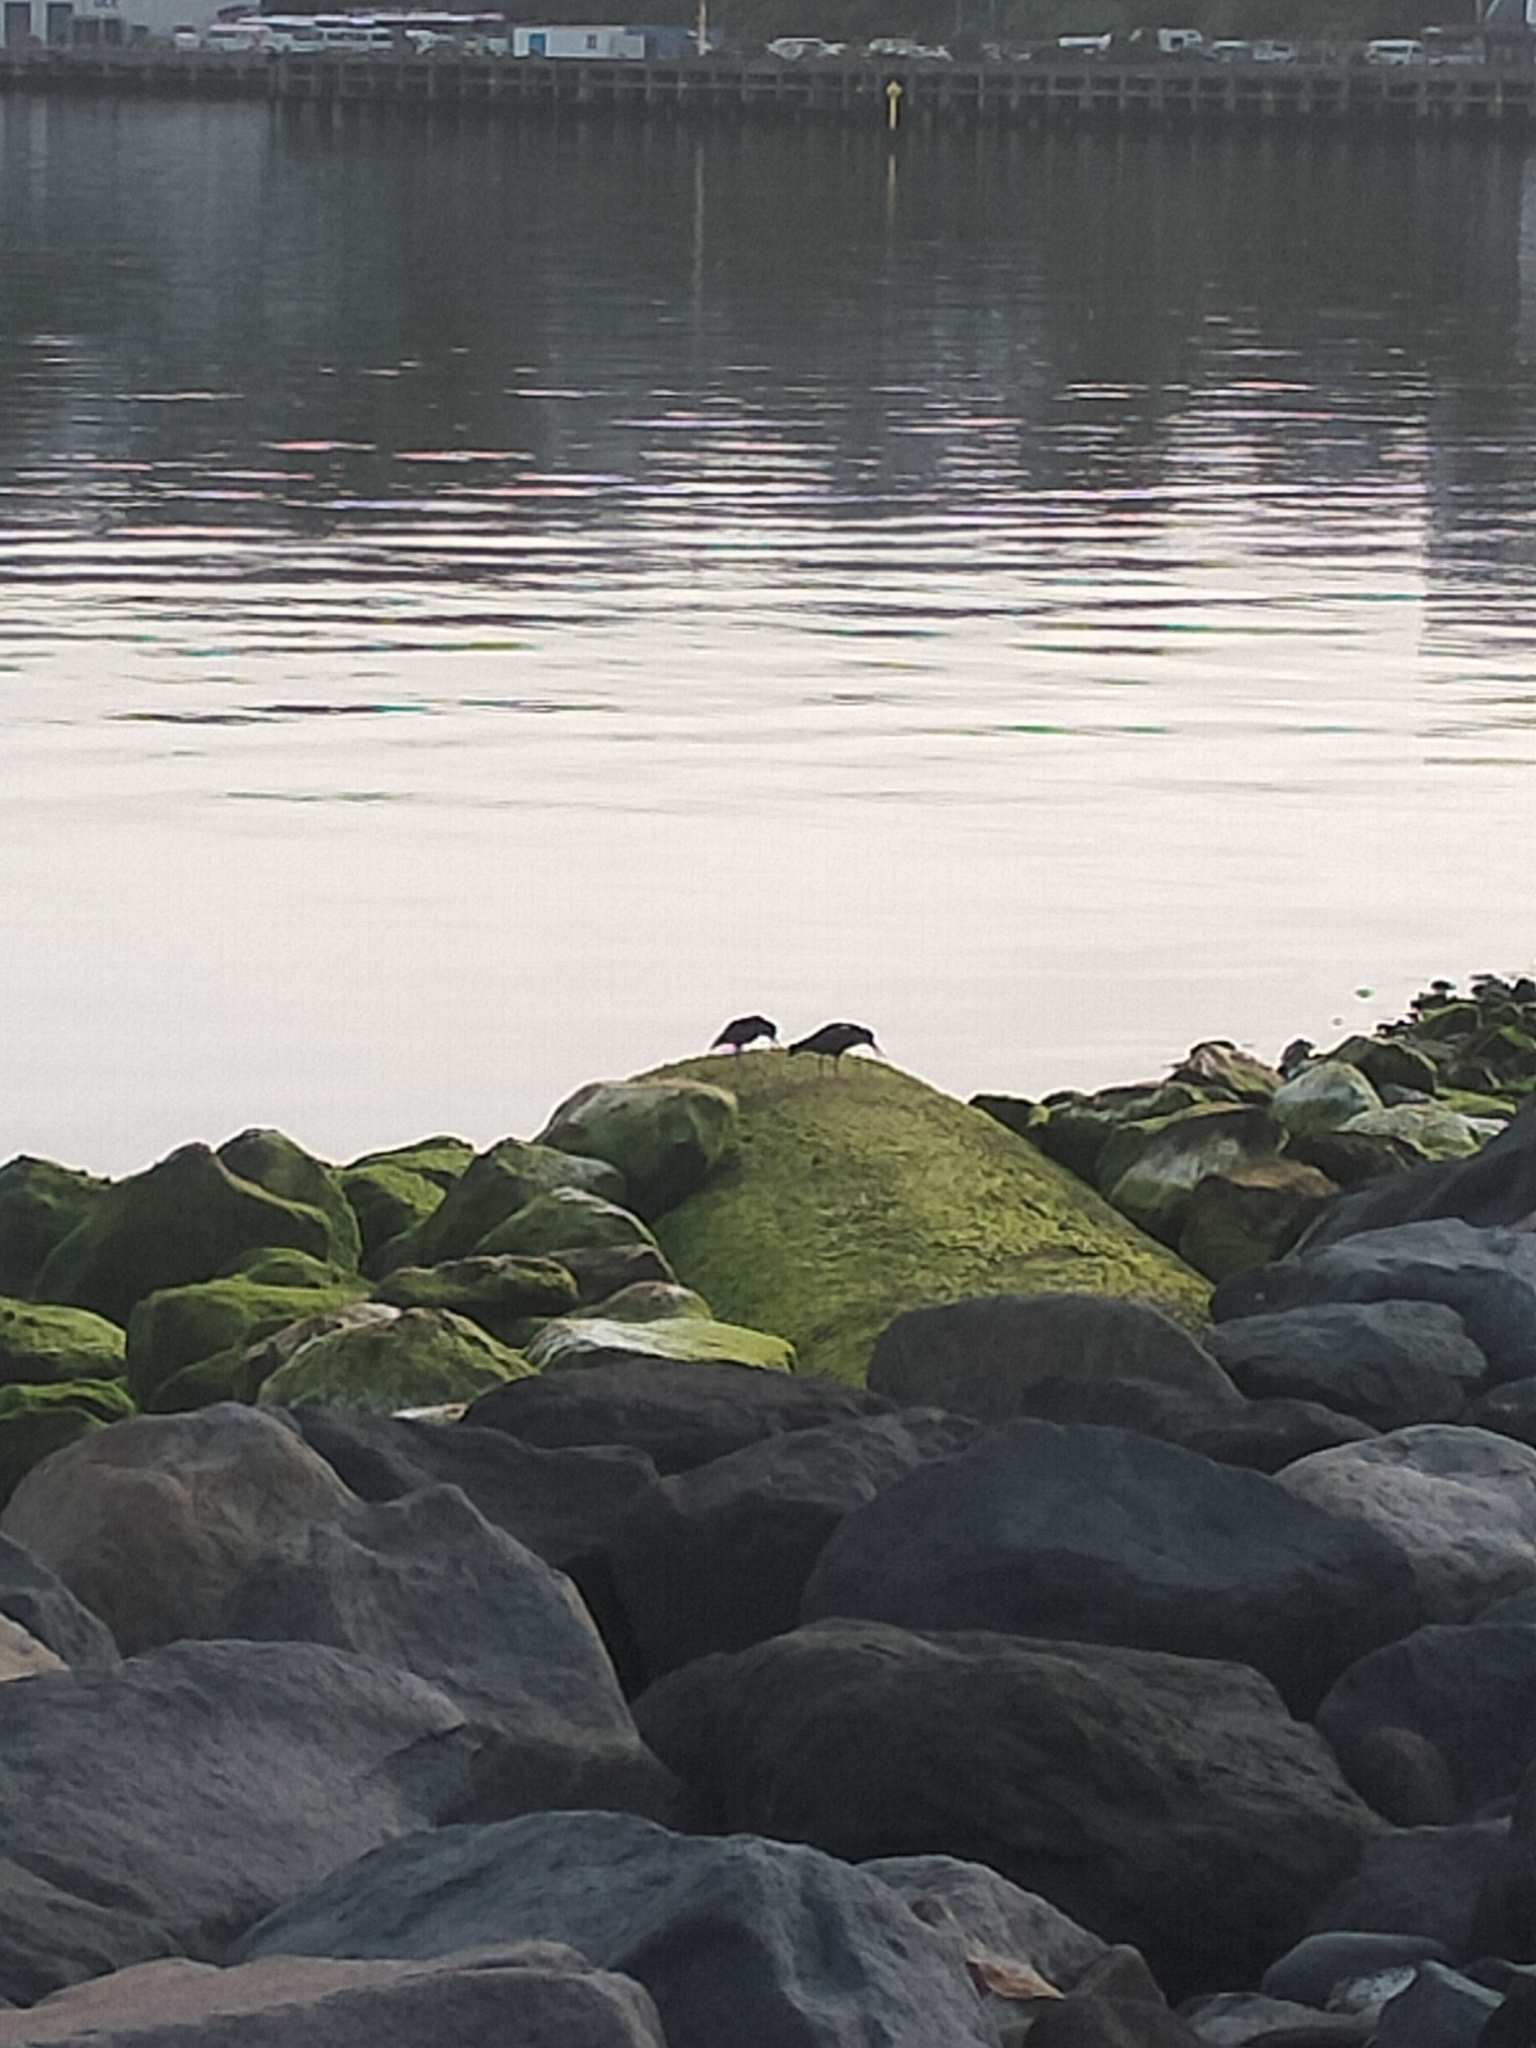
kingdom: Animalia
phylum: Chordata
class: Aves
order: Charadriiformes
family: Haematopodidae
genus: Haematopus
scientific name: Haematopus unicolor
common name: Variable oystercatcher
